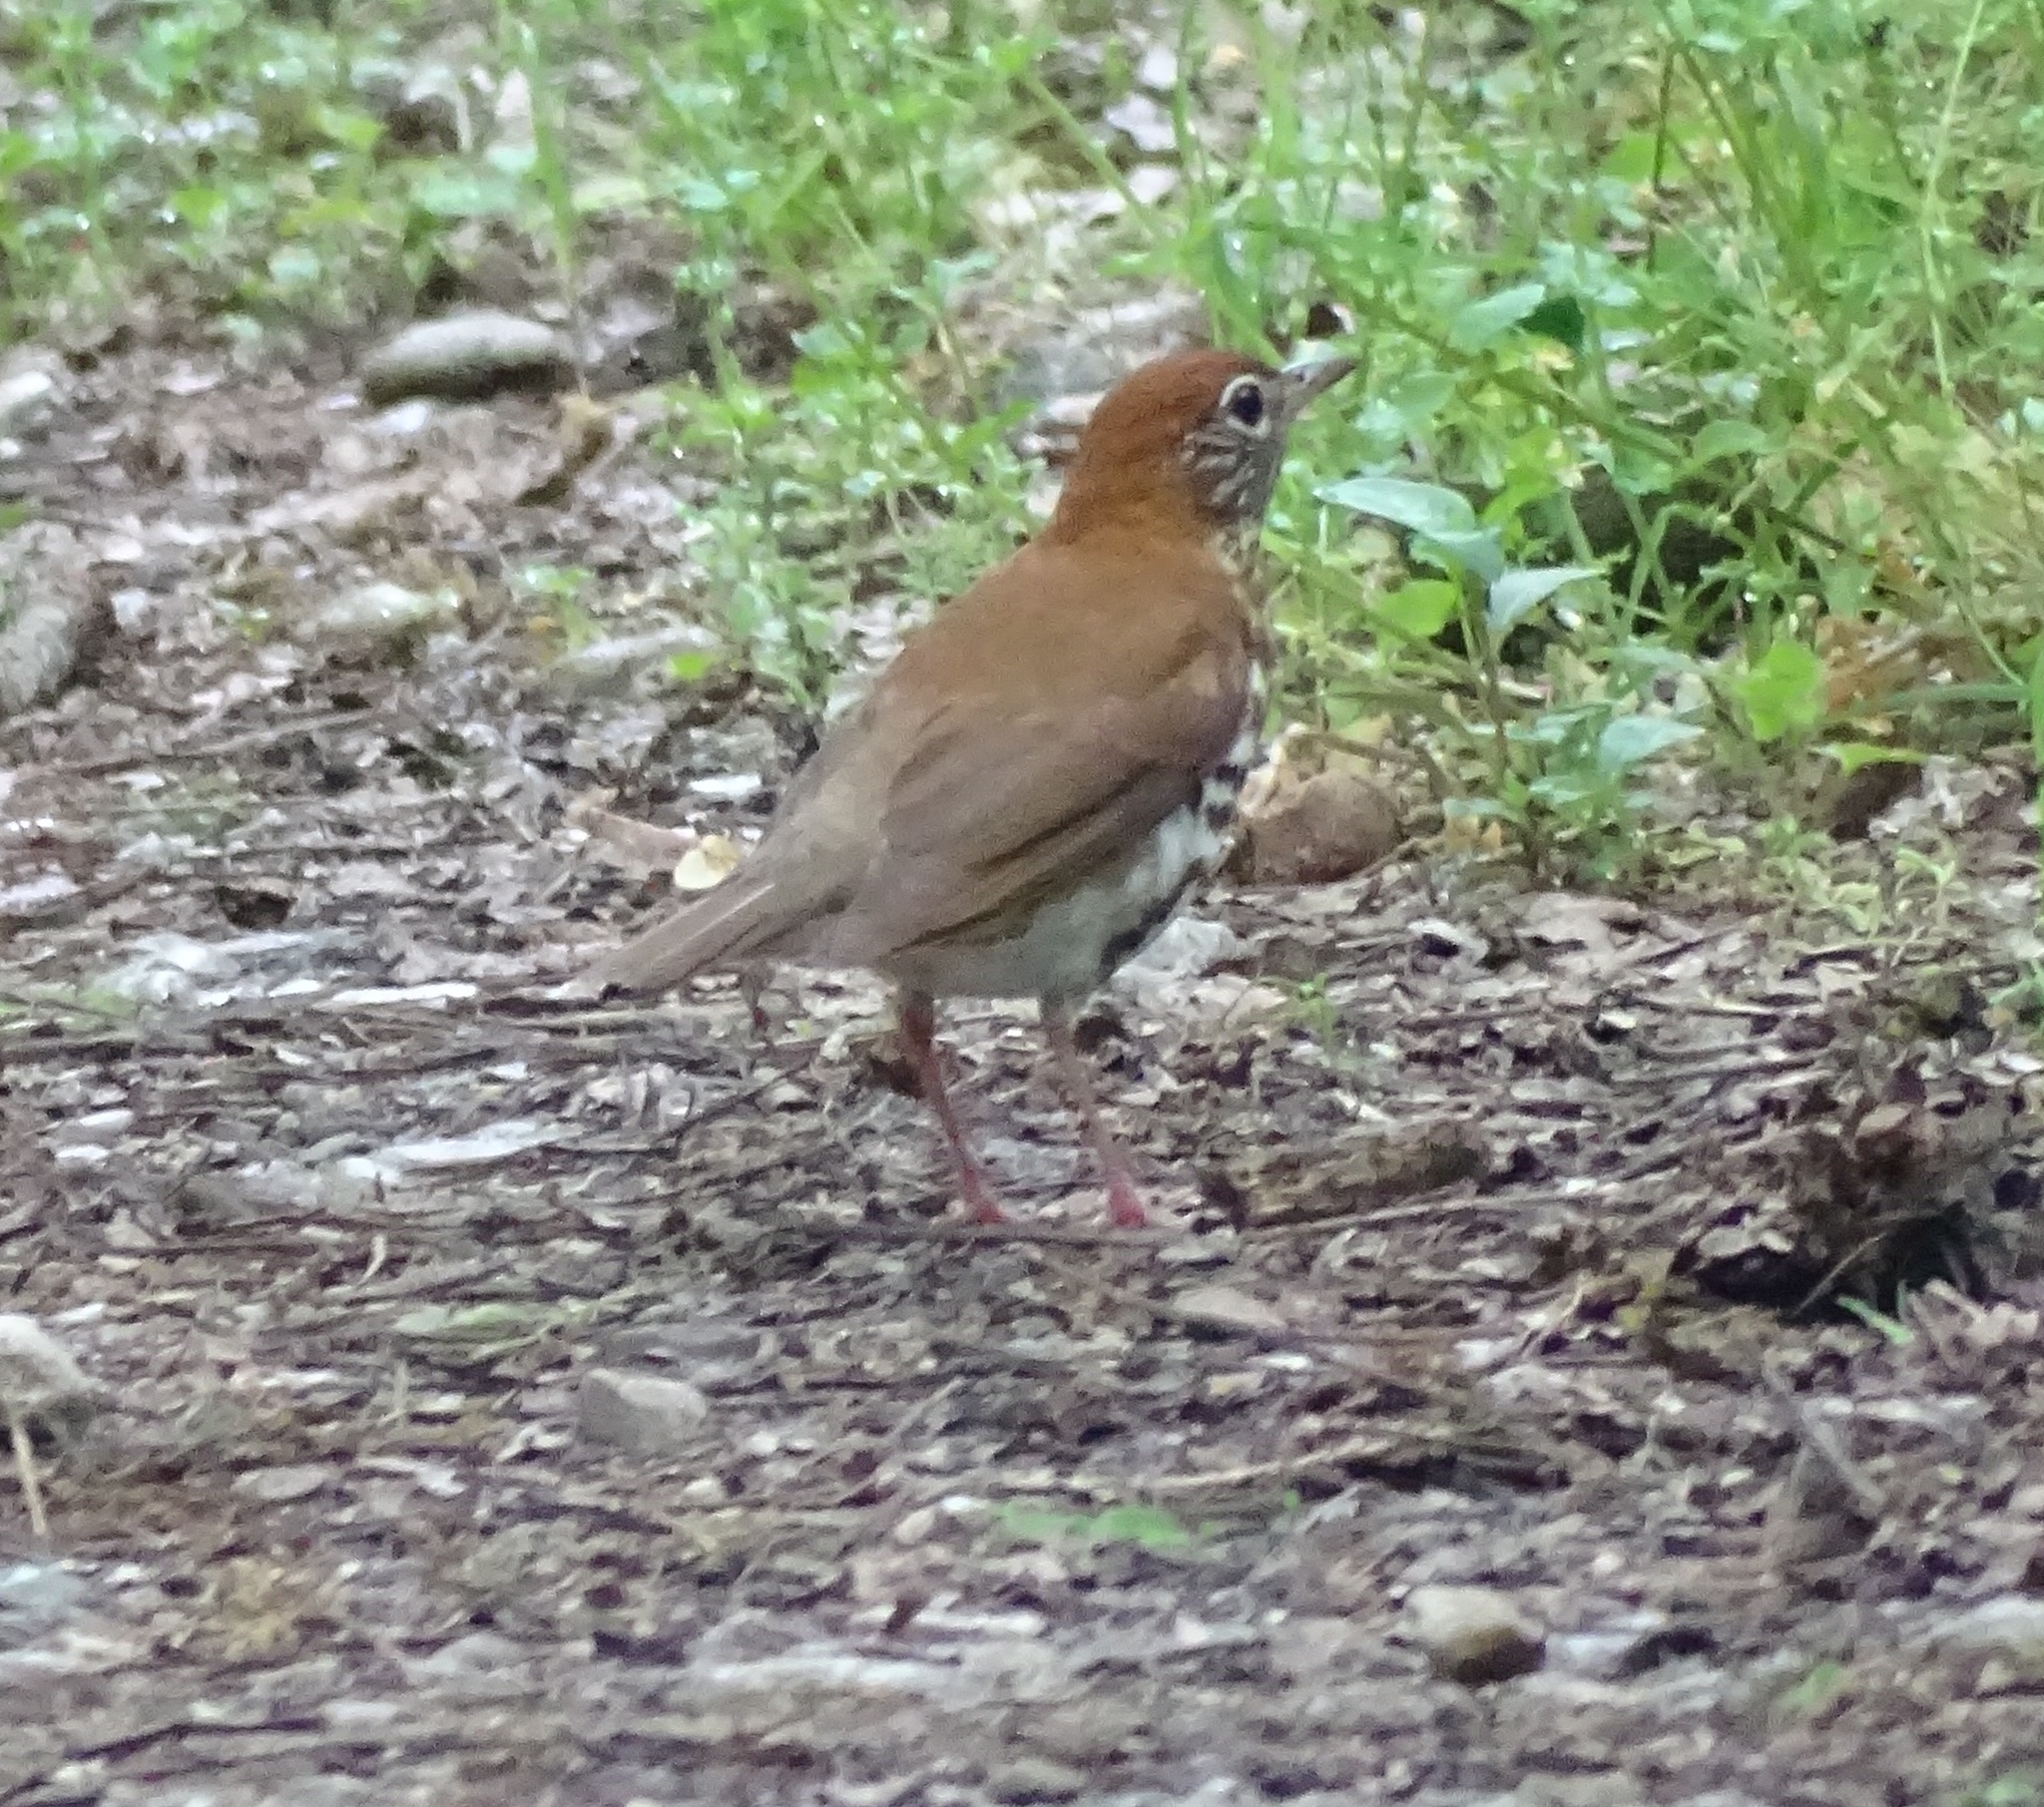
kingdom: Animalia
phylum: Chordata
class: Aves
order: Passeriformes
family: Turdidae
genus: Hylocichla
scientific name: Hylocichla mustelina
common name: Wood thrush
